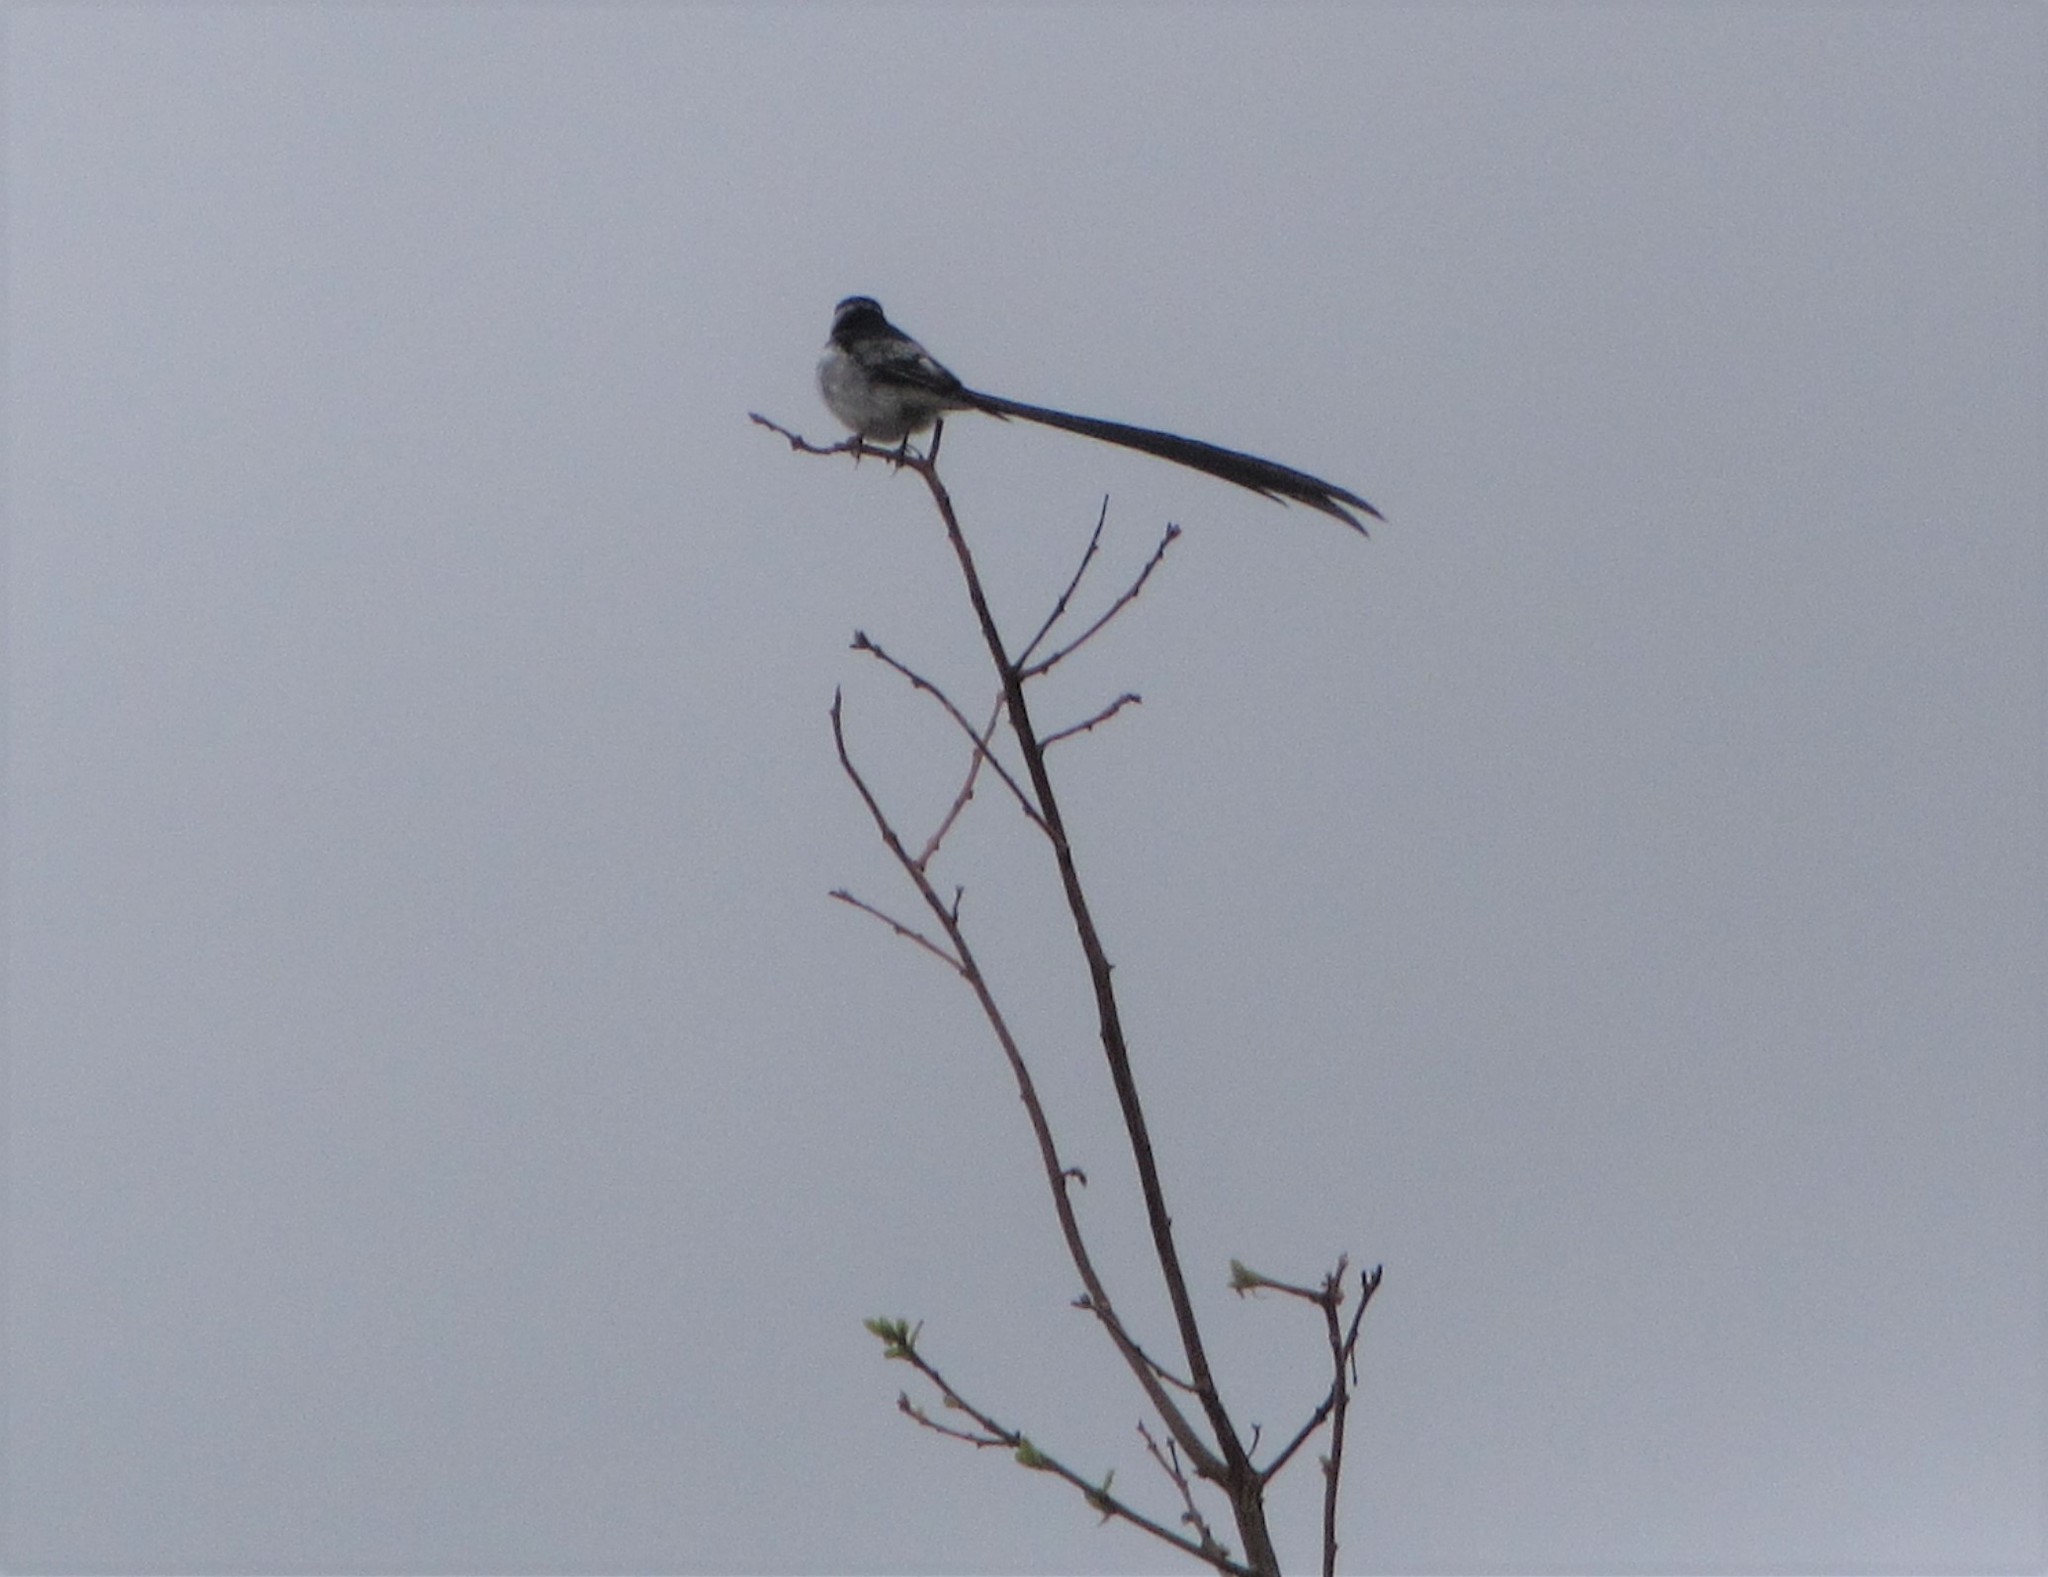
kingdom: Animalia
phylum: Chordata
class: Aves
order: Passeriformes
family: Viduidae
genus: Vidua
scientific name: Vidua macroura
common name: Pin-tailed whydah
